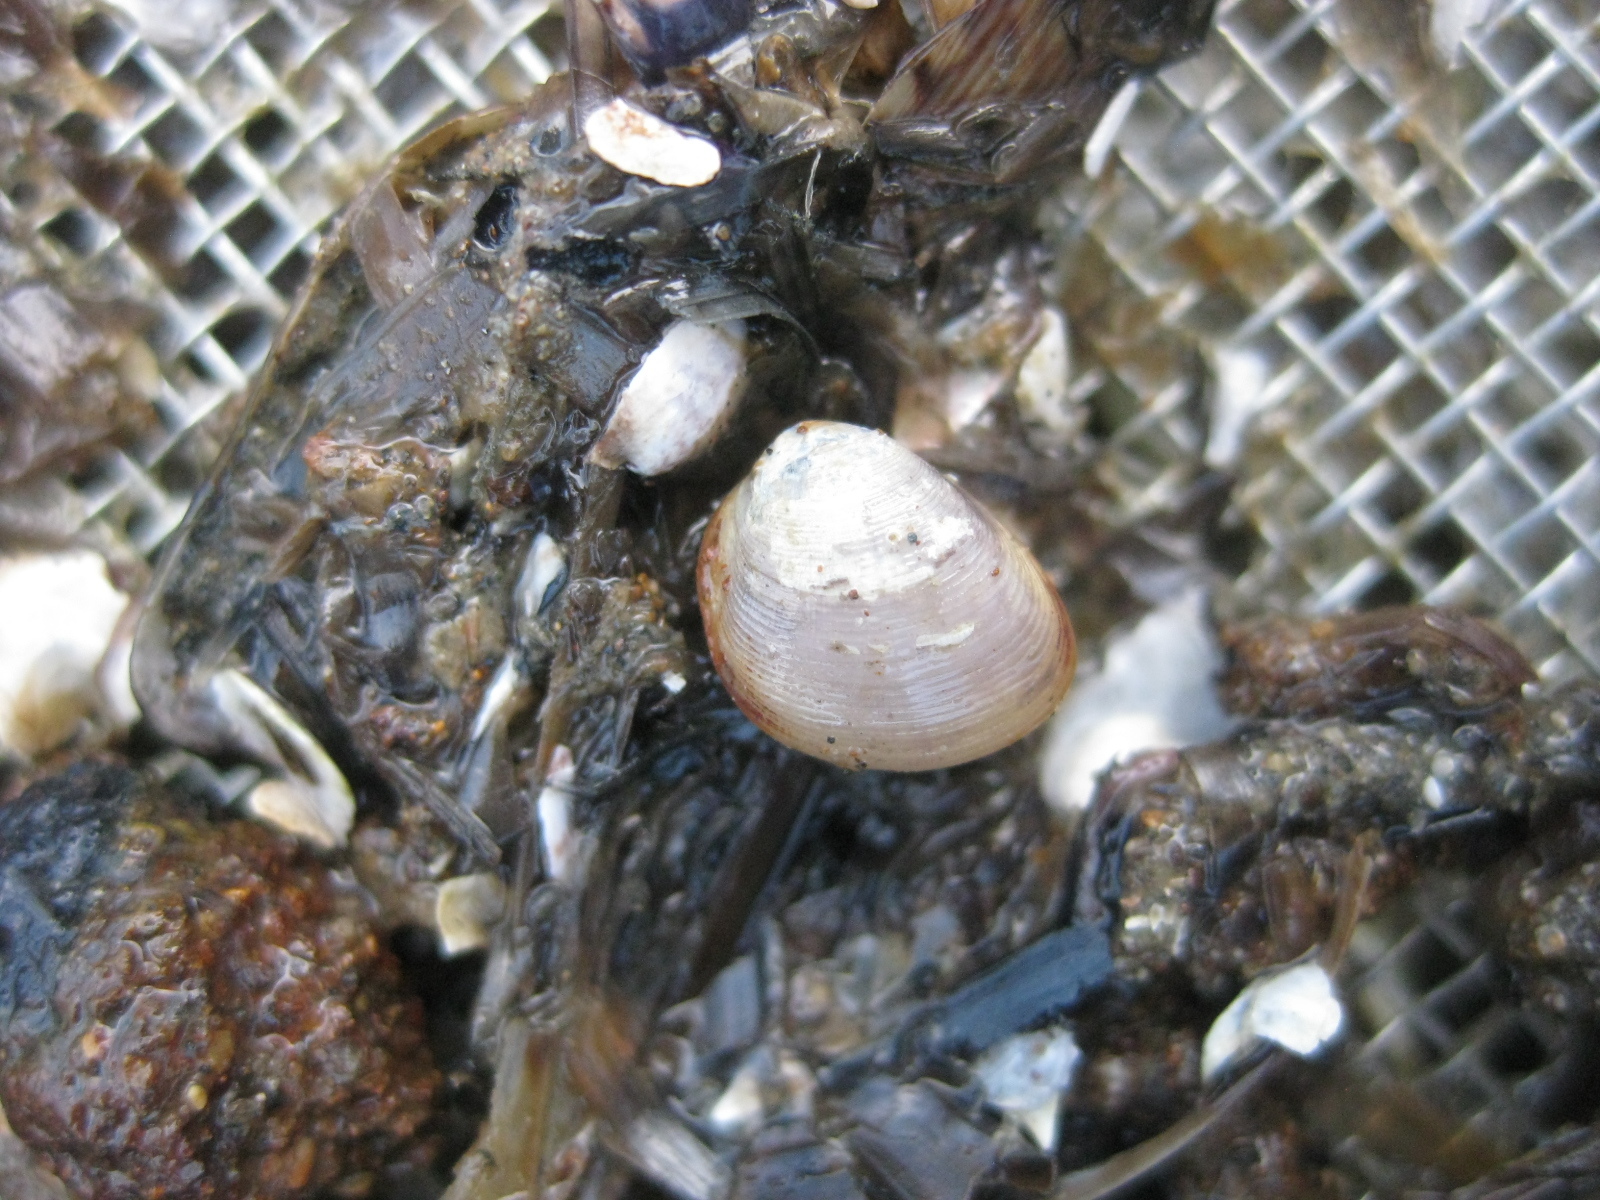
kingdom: Animalia
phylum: Mollusca
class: Bivalvia
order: Nuculida
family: Nuculidae
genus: Linucula
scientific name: Linucula hartvigiana
